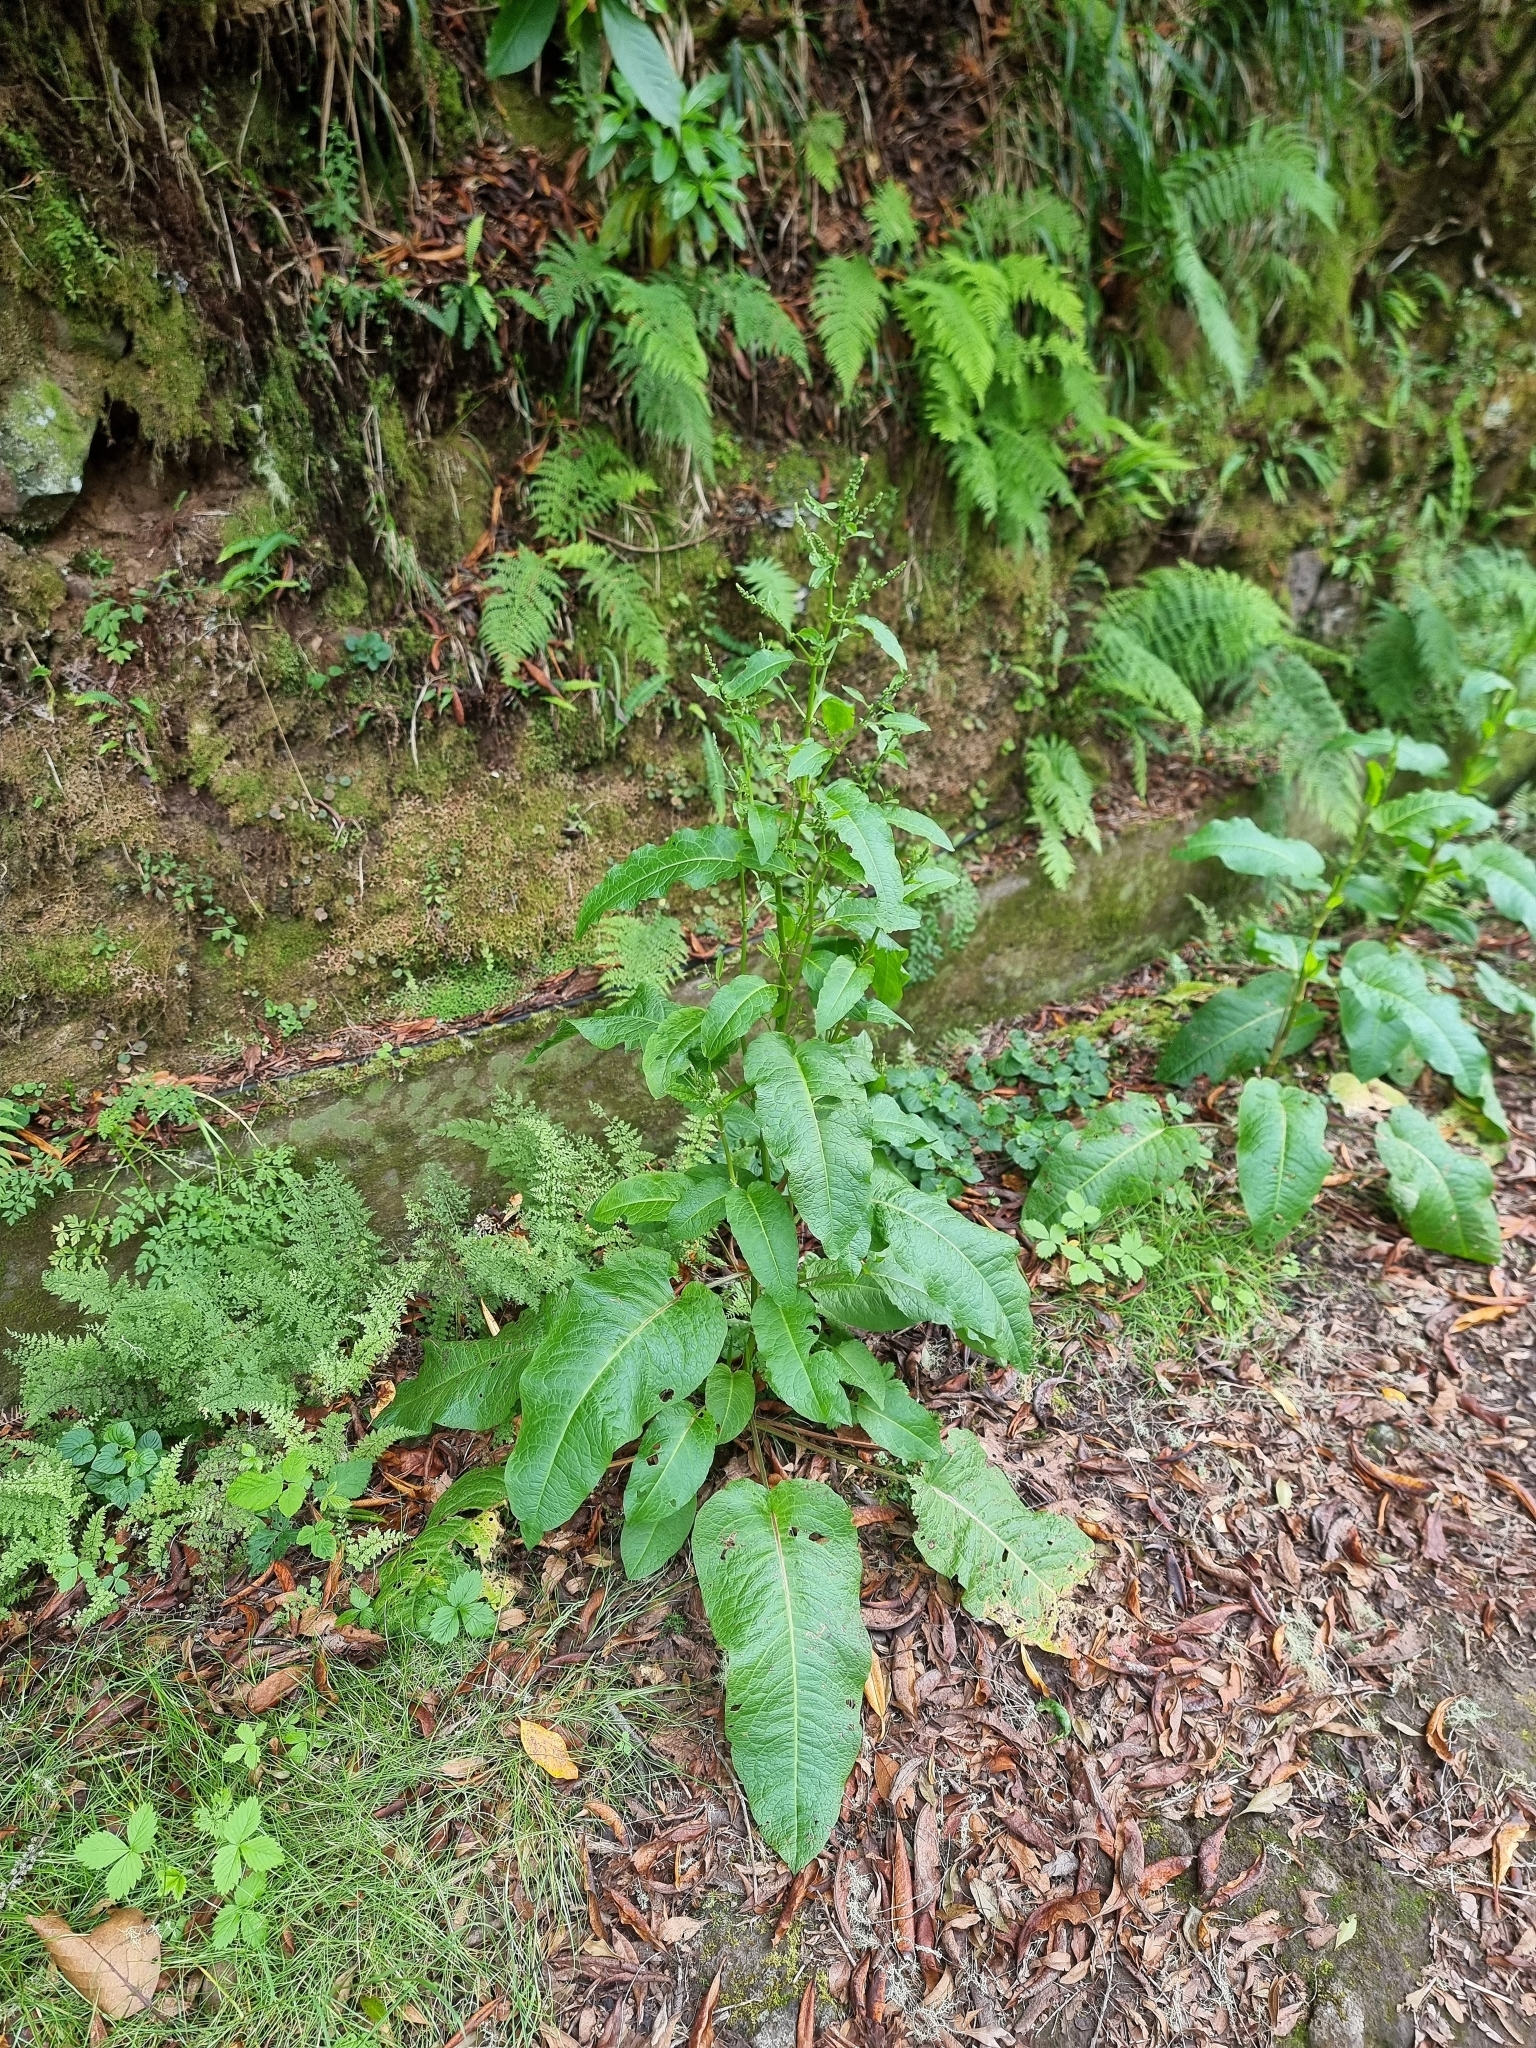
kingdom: Plantae
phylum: Tracheophyta
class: Magnoliopsida
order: Caryophyllales
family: Polygonaceae
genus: Rumex
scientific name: Rumex obtusifolius
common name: Bitter dock
